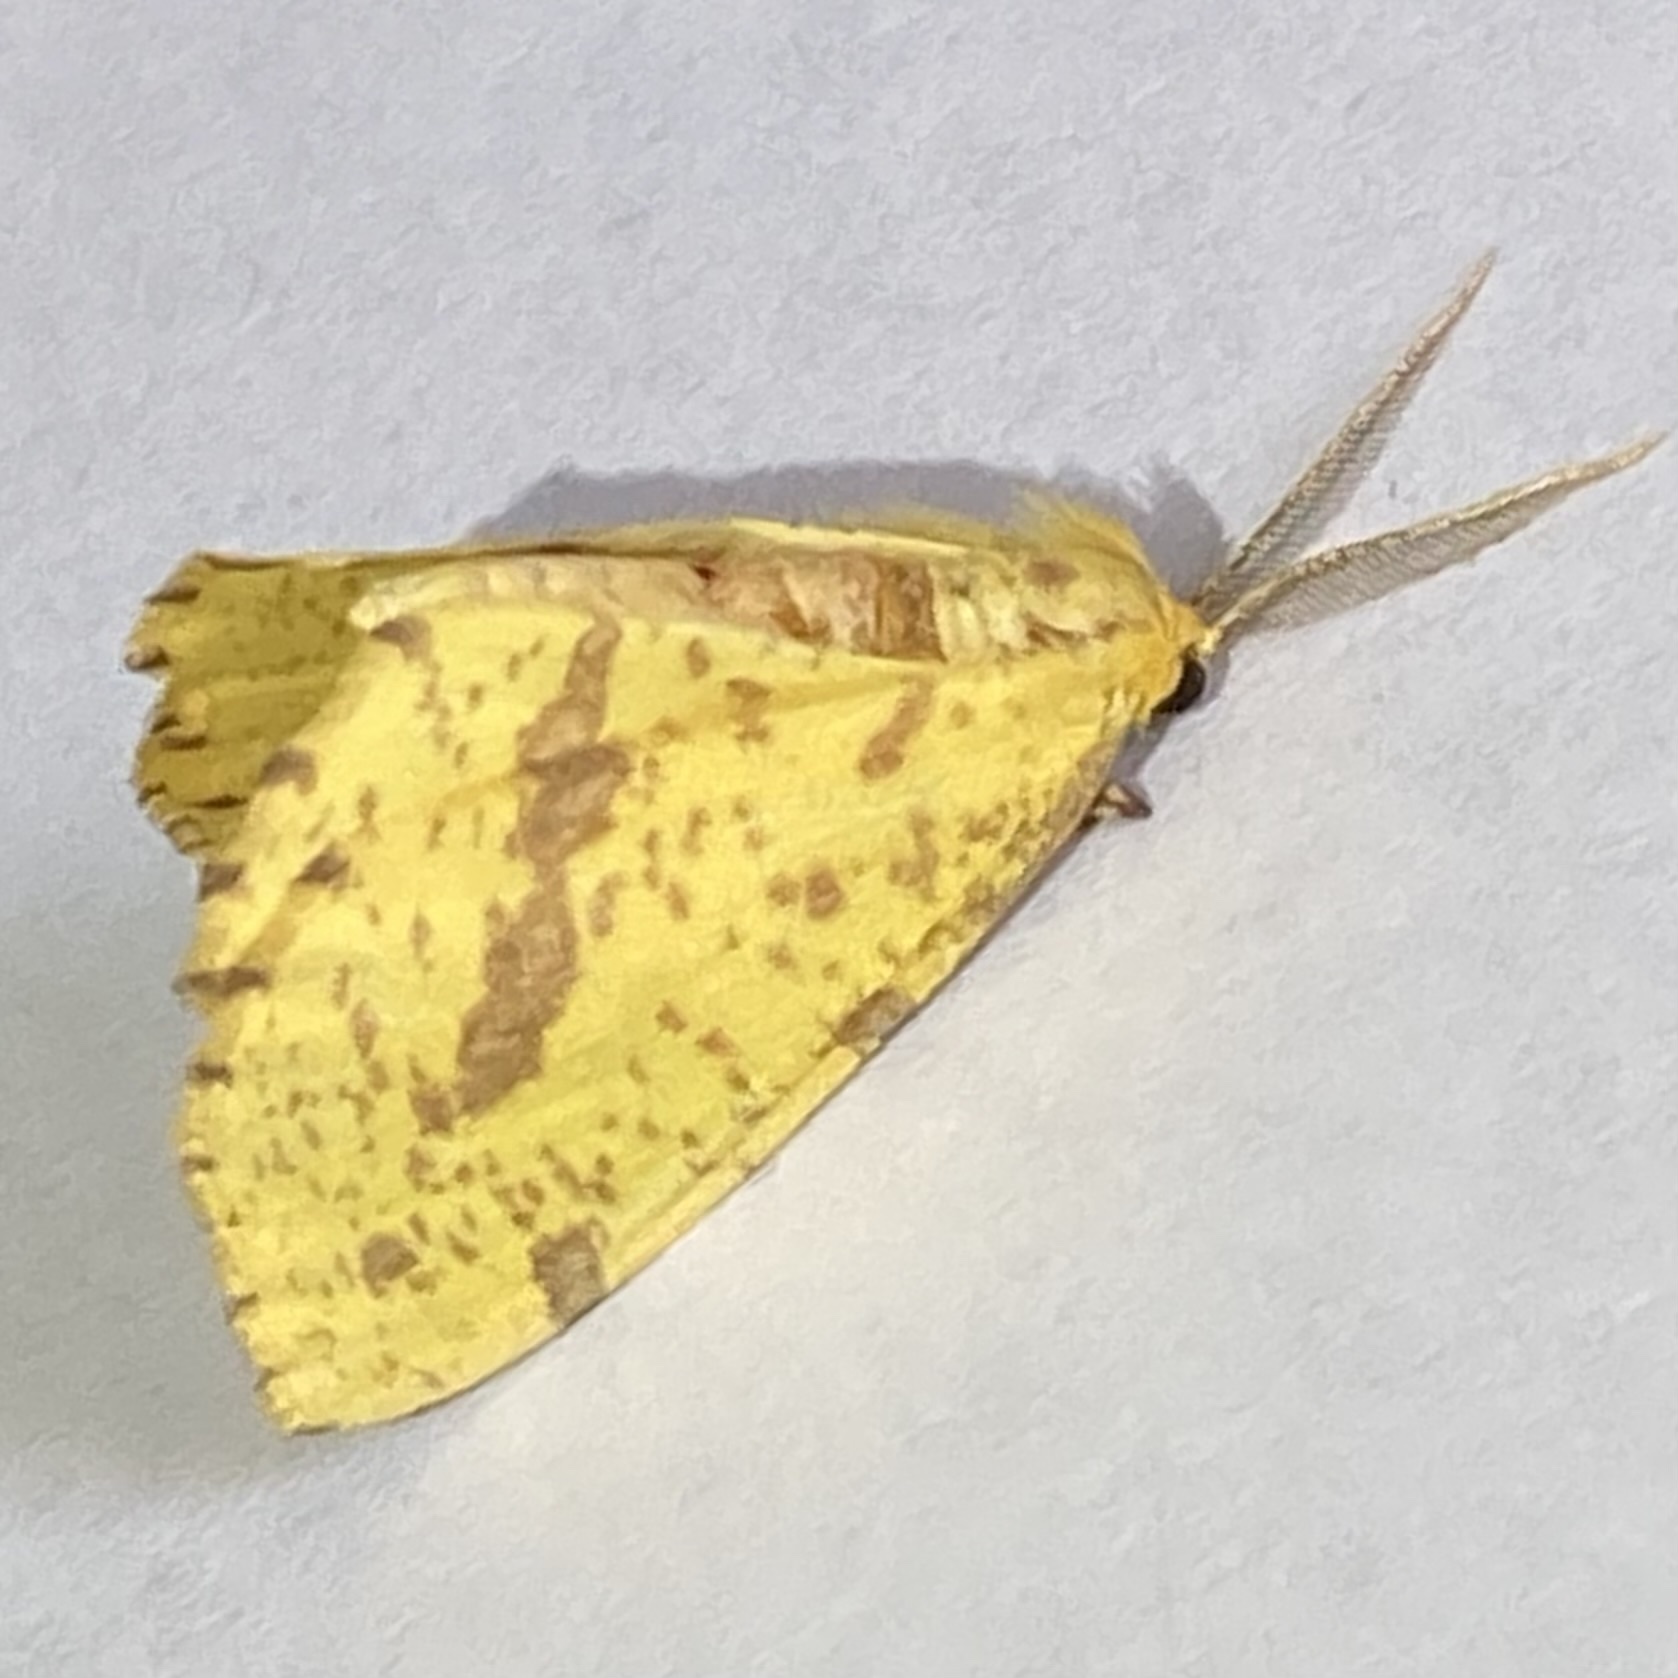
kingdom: Animalia
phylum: Arthropoda
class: Insecta
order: Lepidoptera
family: Geometridae
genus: Xanthotype
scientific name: Xanthotype
